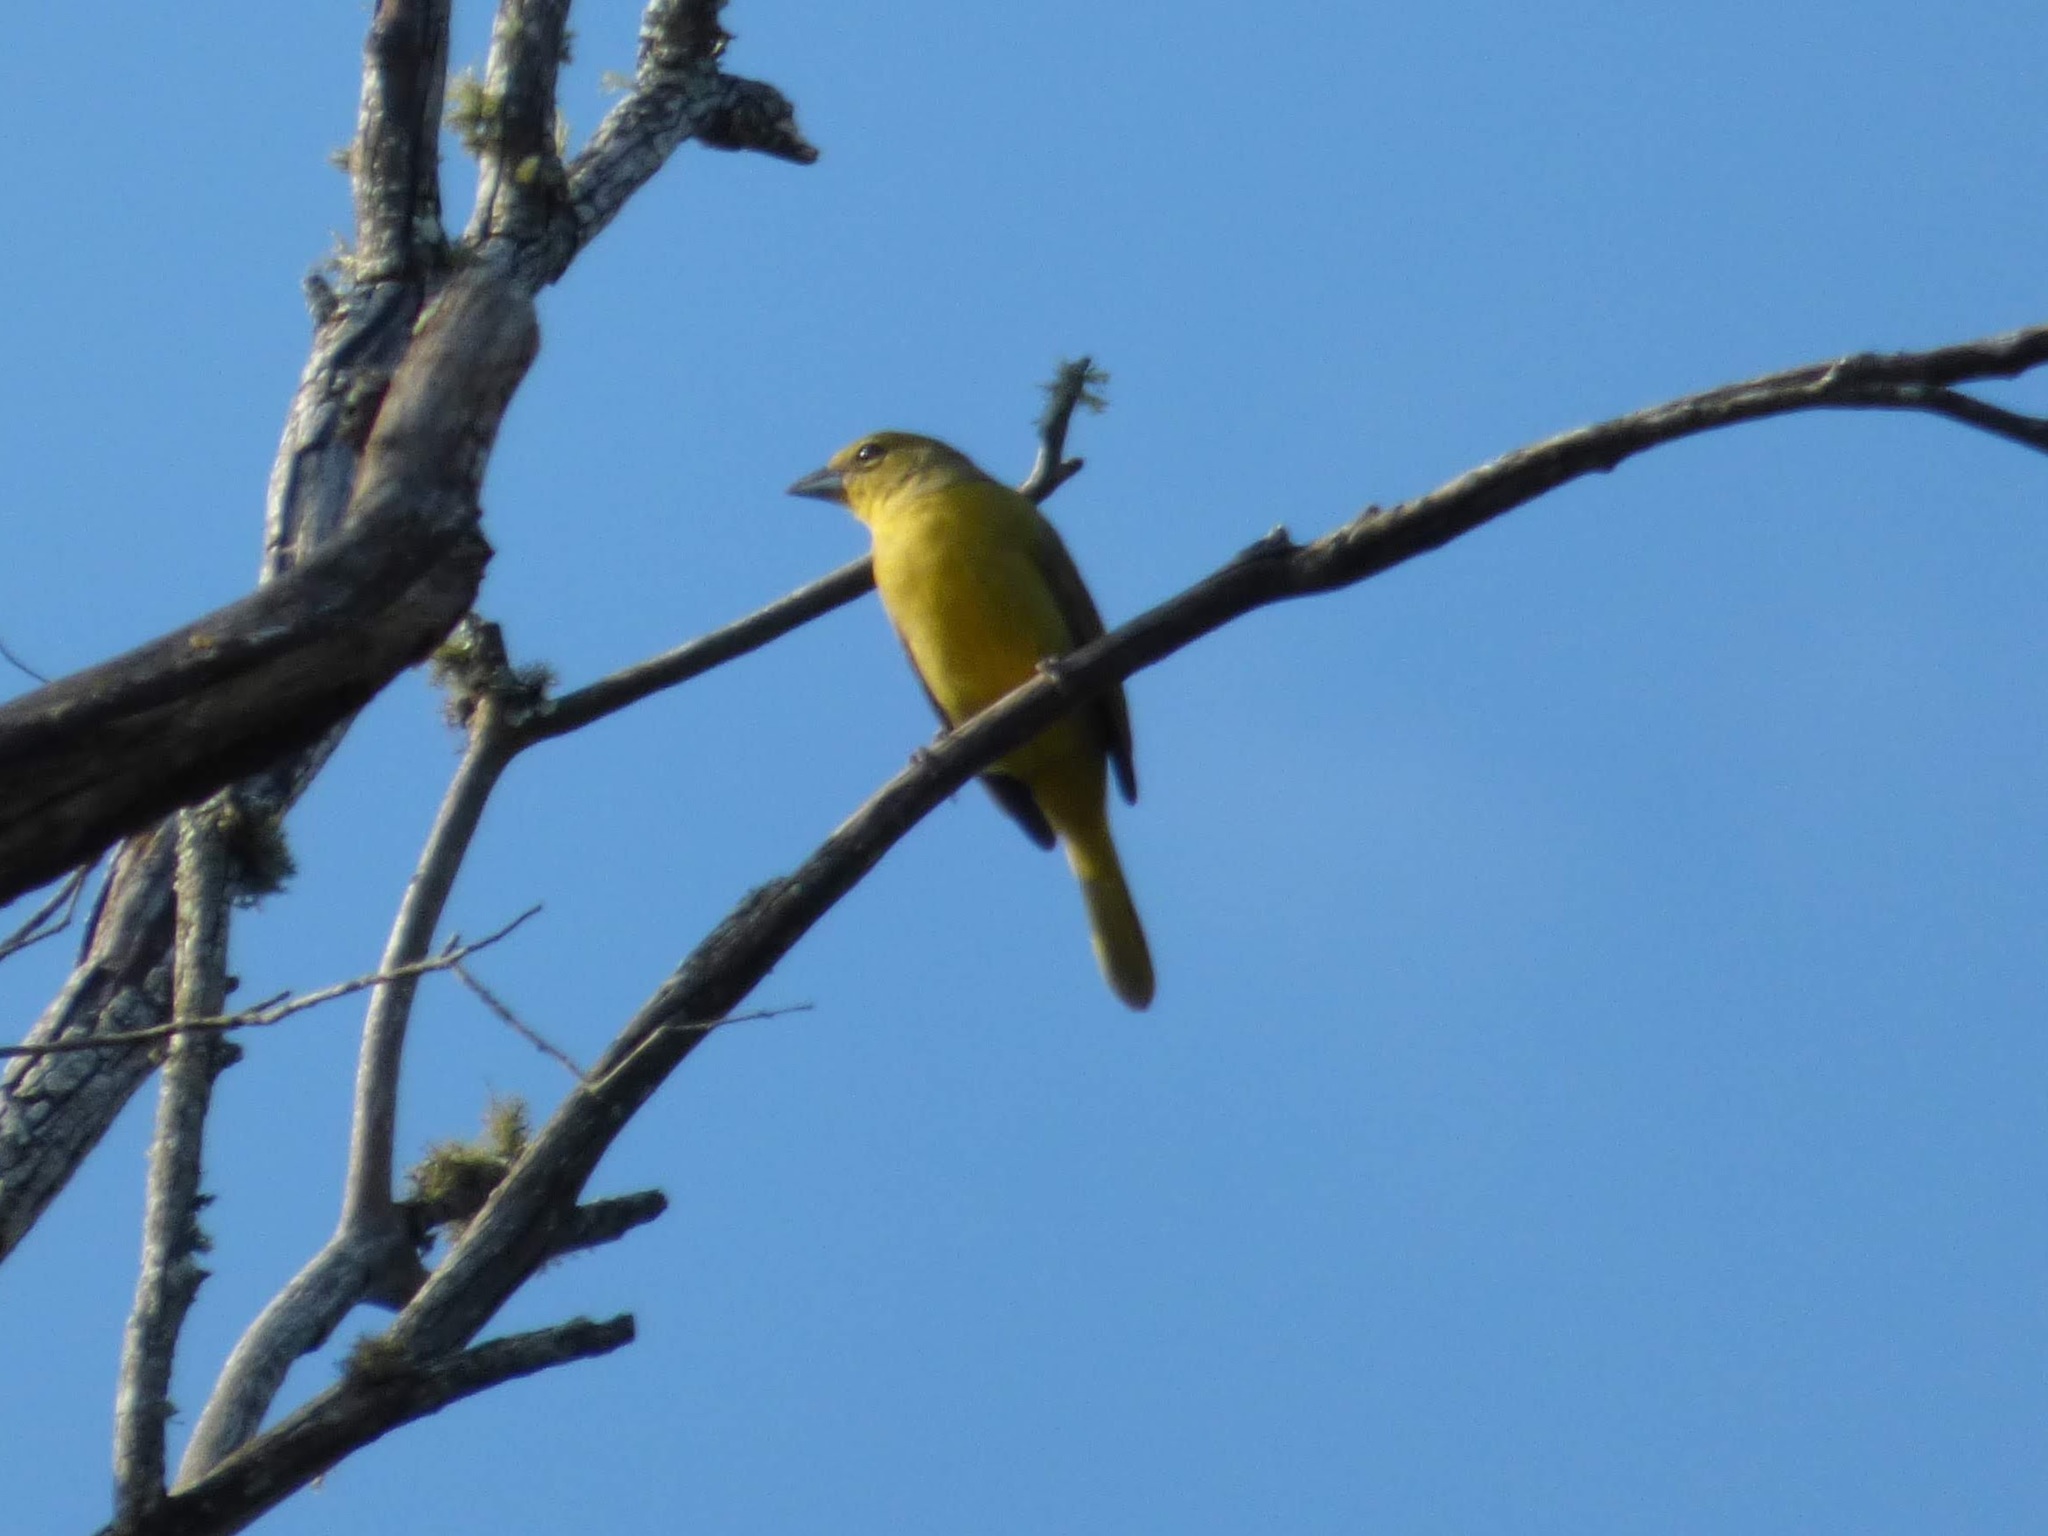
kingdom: Animalia
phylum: Chordata
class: Aves
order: Passeriformes
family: Cardinalidae
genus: Piranga
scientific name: Piranga flava
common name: Red tanager
